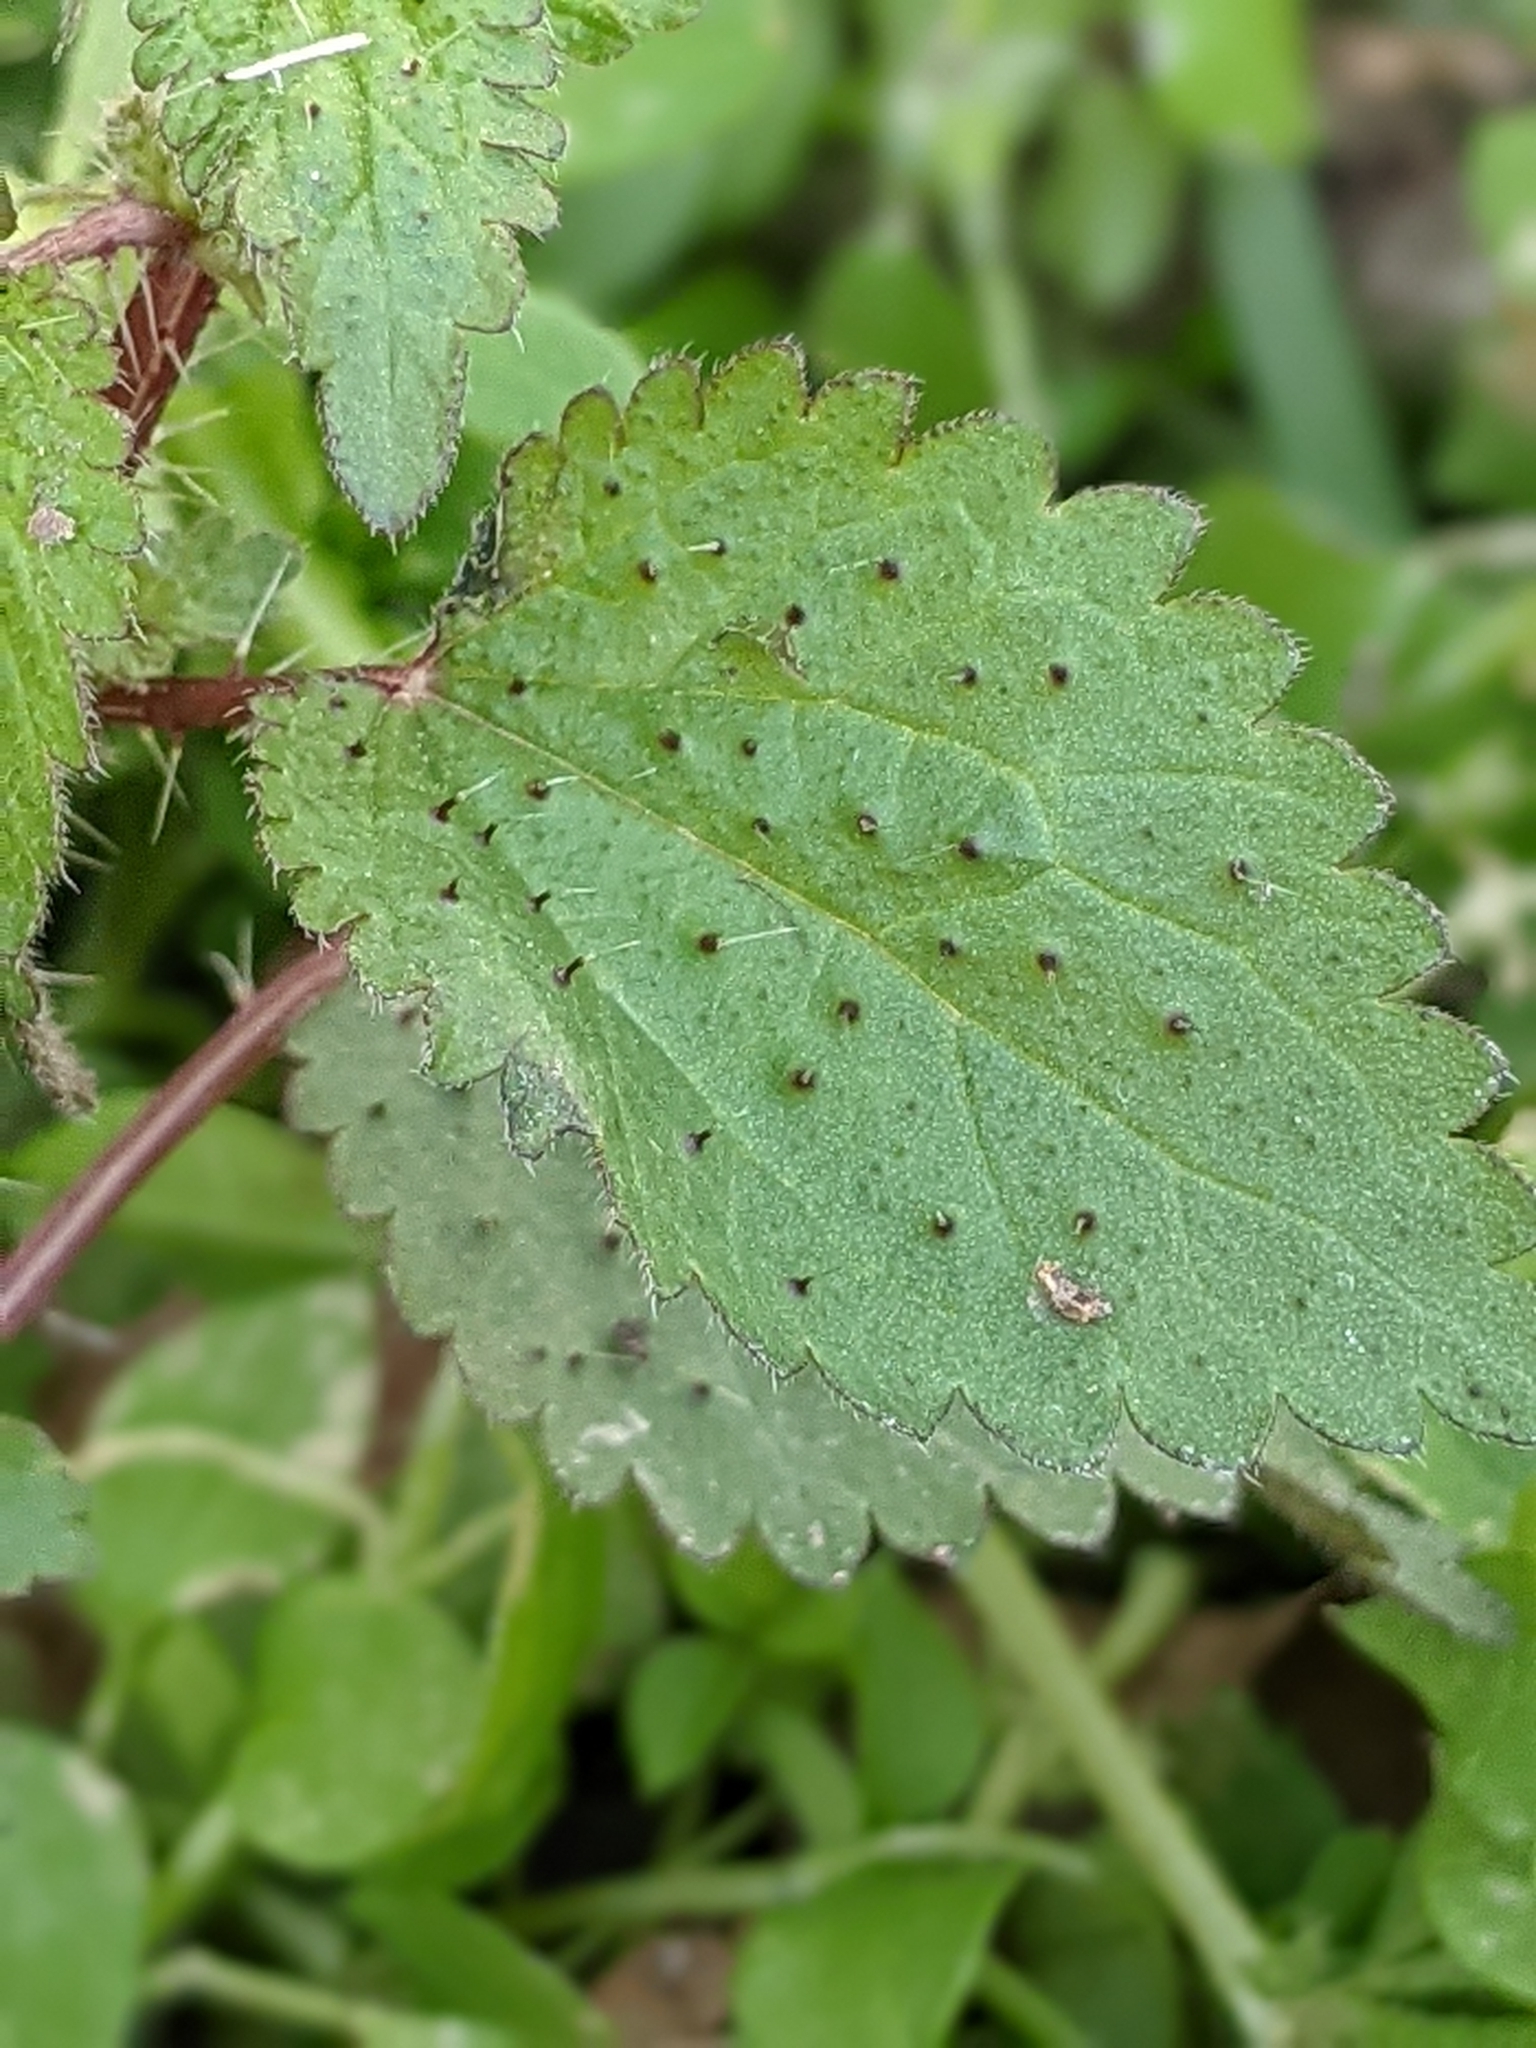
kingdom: Plantae
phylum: Tracheophyta
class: Magnoliopsida
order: Rosales
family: Urticaceae
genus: Urtica
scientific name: Urtica chamaedryoides
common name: Heart-leaf nettle
